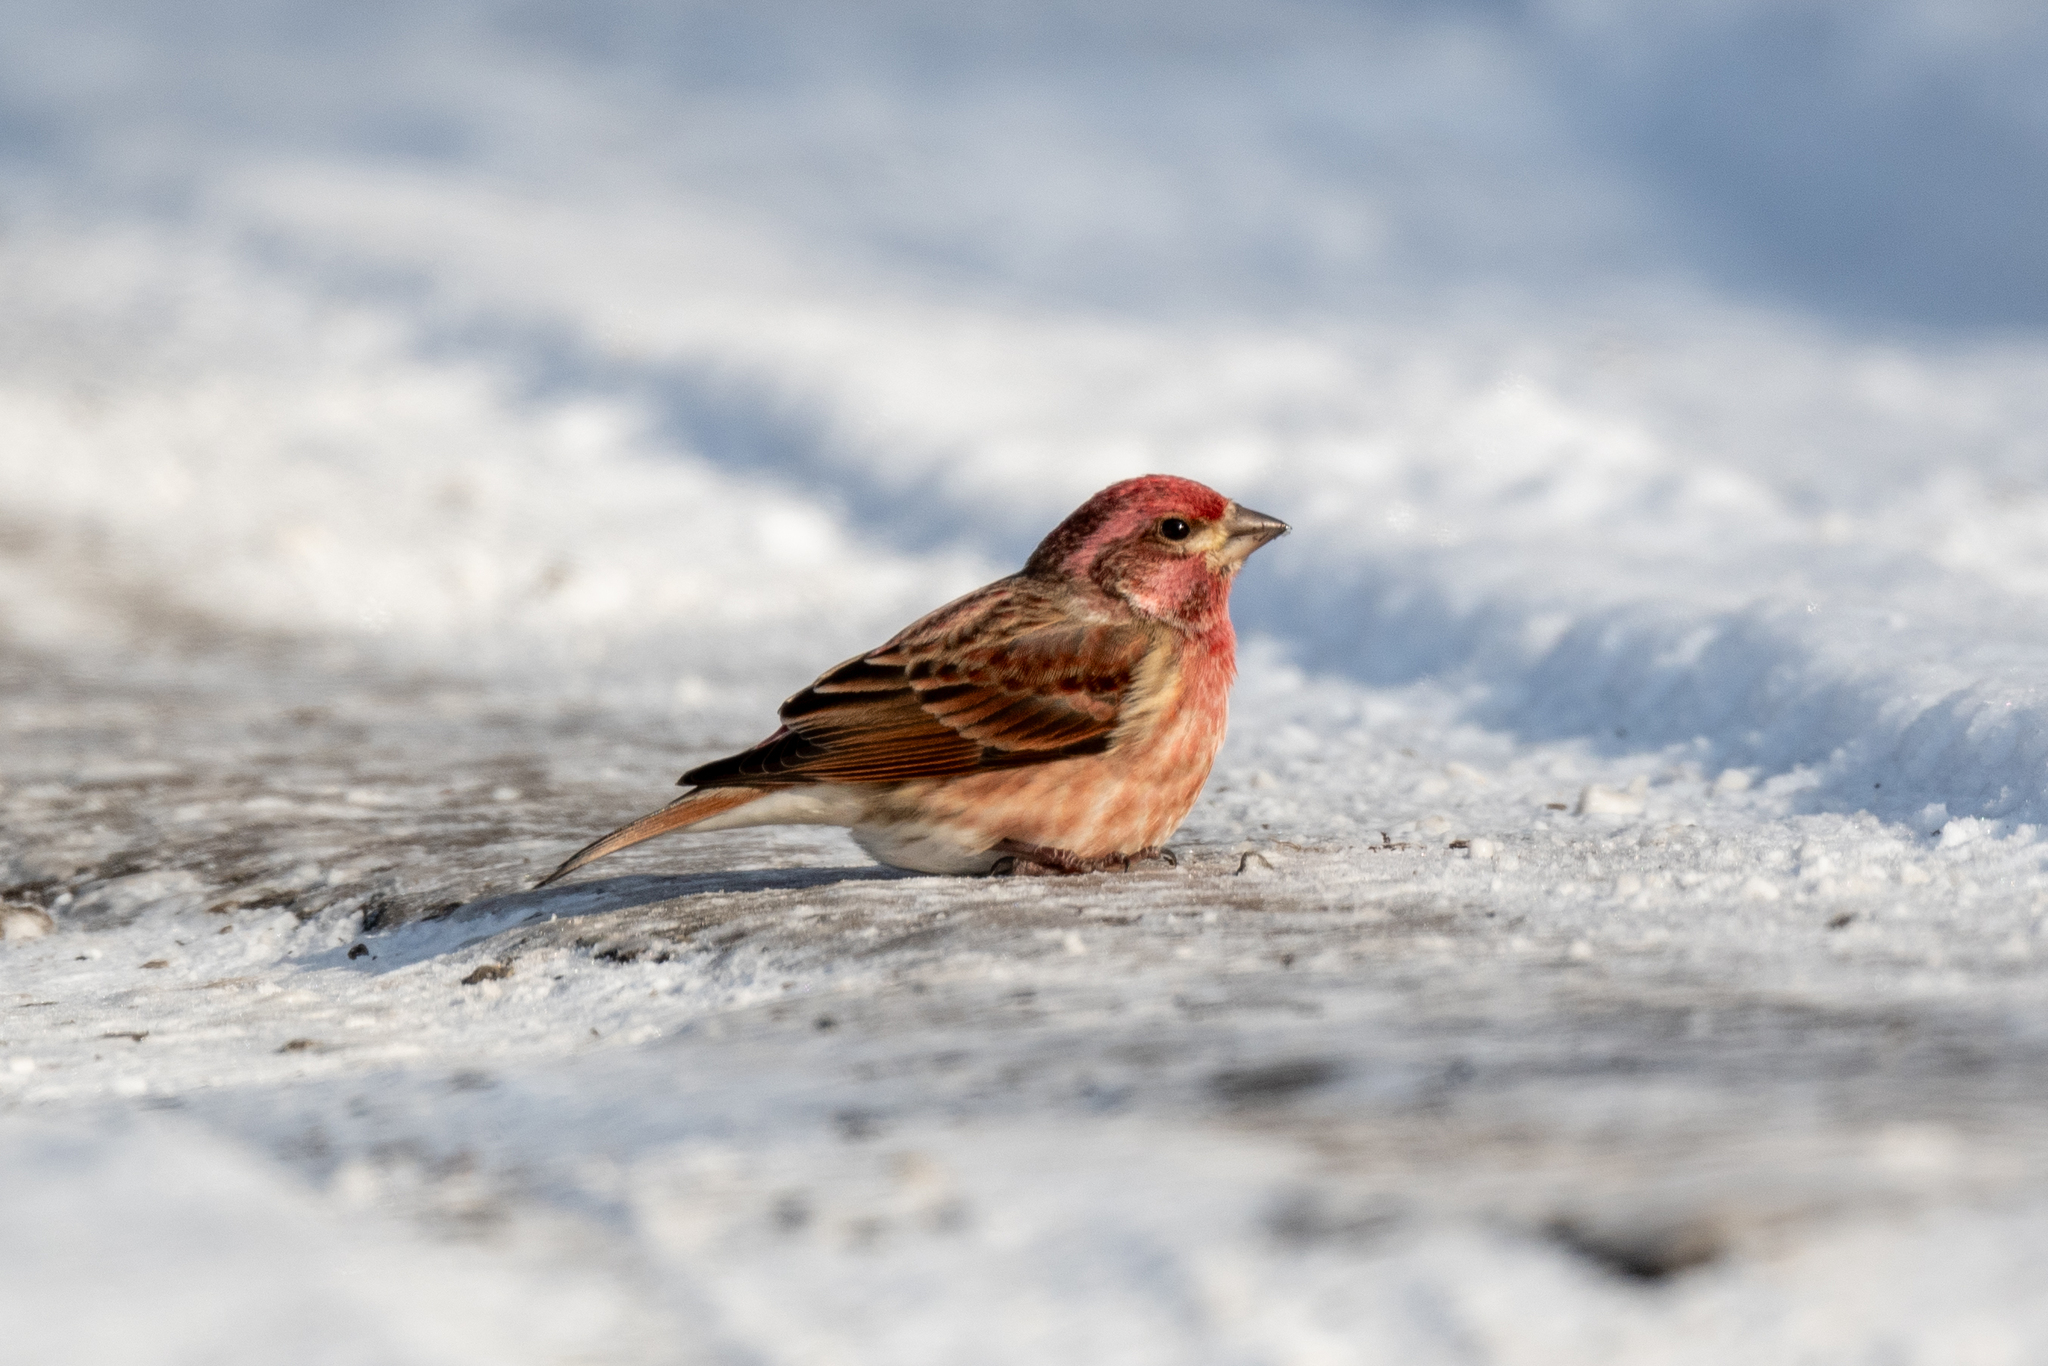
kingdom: Animalia
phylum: Chordata
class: Aves
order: Passeriformes
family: Fringillidae
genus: Haemorhous
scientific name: Haemorhous purpureus
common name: Purple finch
